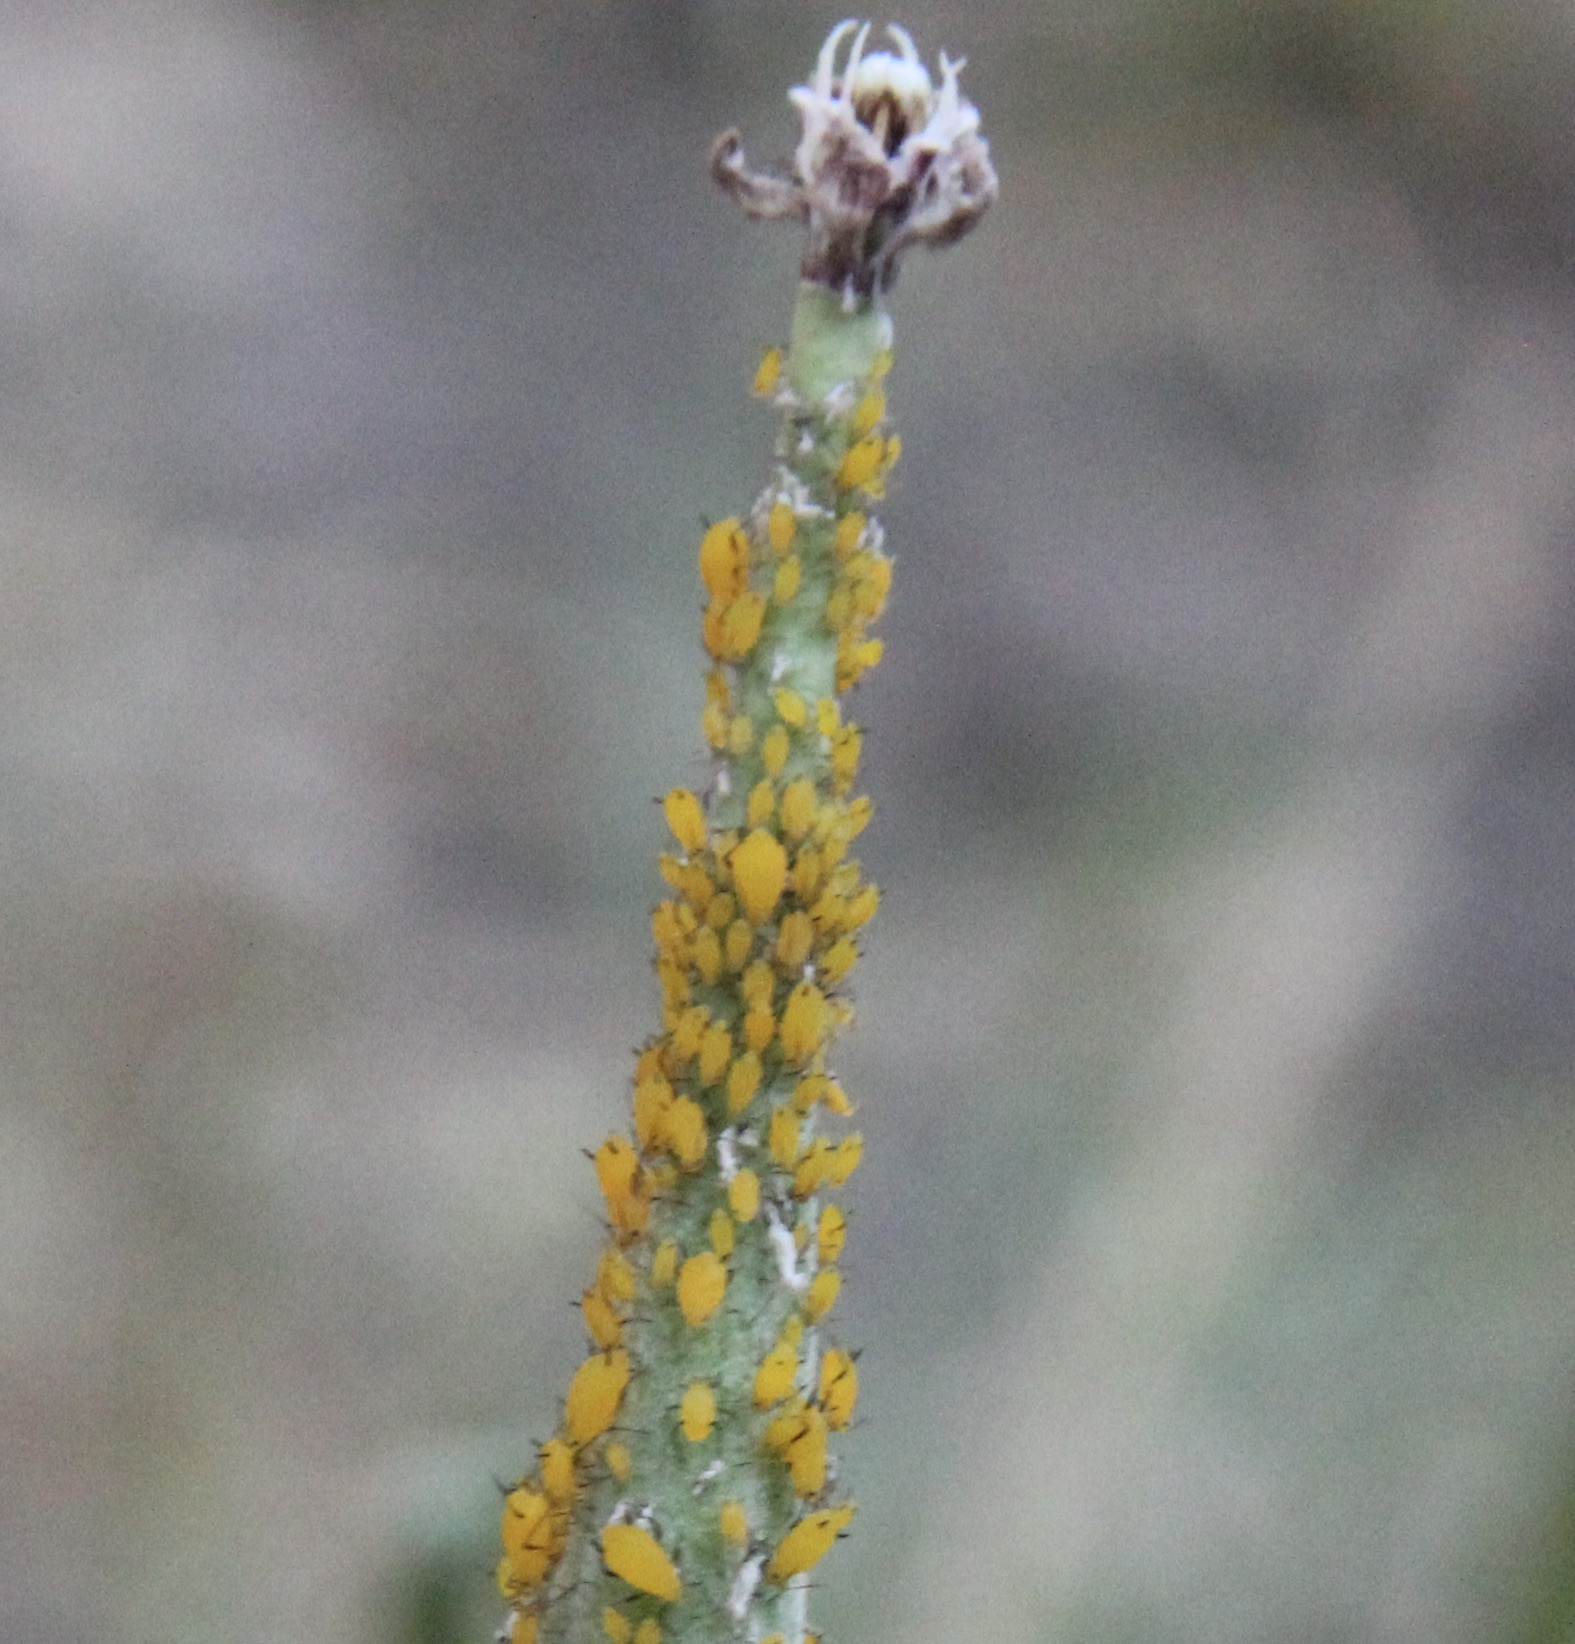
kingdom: Animalia
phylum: Arthropoda
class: Insecta
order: Hemiptera
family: Aphididae
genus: Aphis
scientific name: Aphis nerii
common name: Oleander aphid
